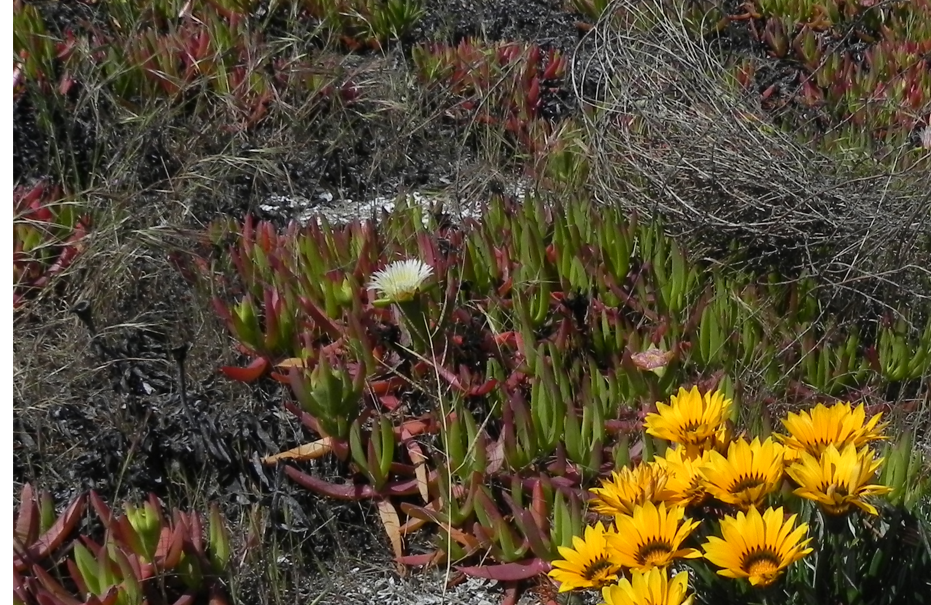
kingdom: Plantae
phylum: Tracheophyta
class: Magnoliopsida
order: Caryophyllales
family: Aizoaceae
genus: Carpobrotus
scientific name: Carpobrotus edulis
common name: Hottentot-fig
